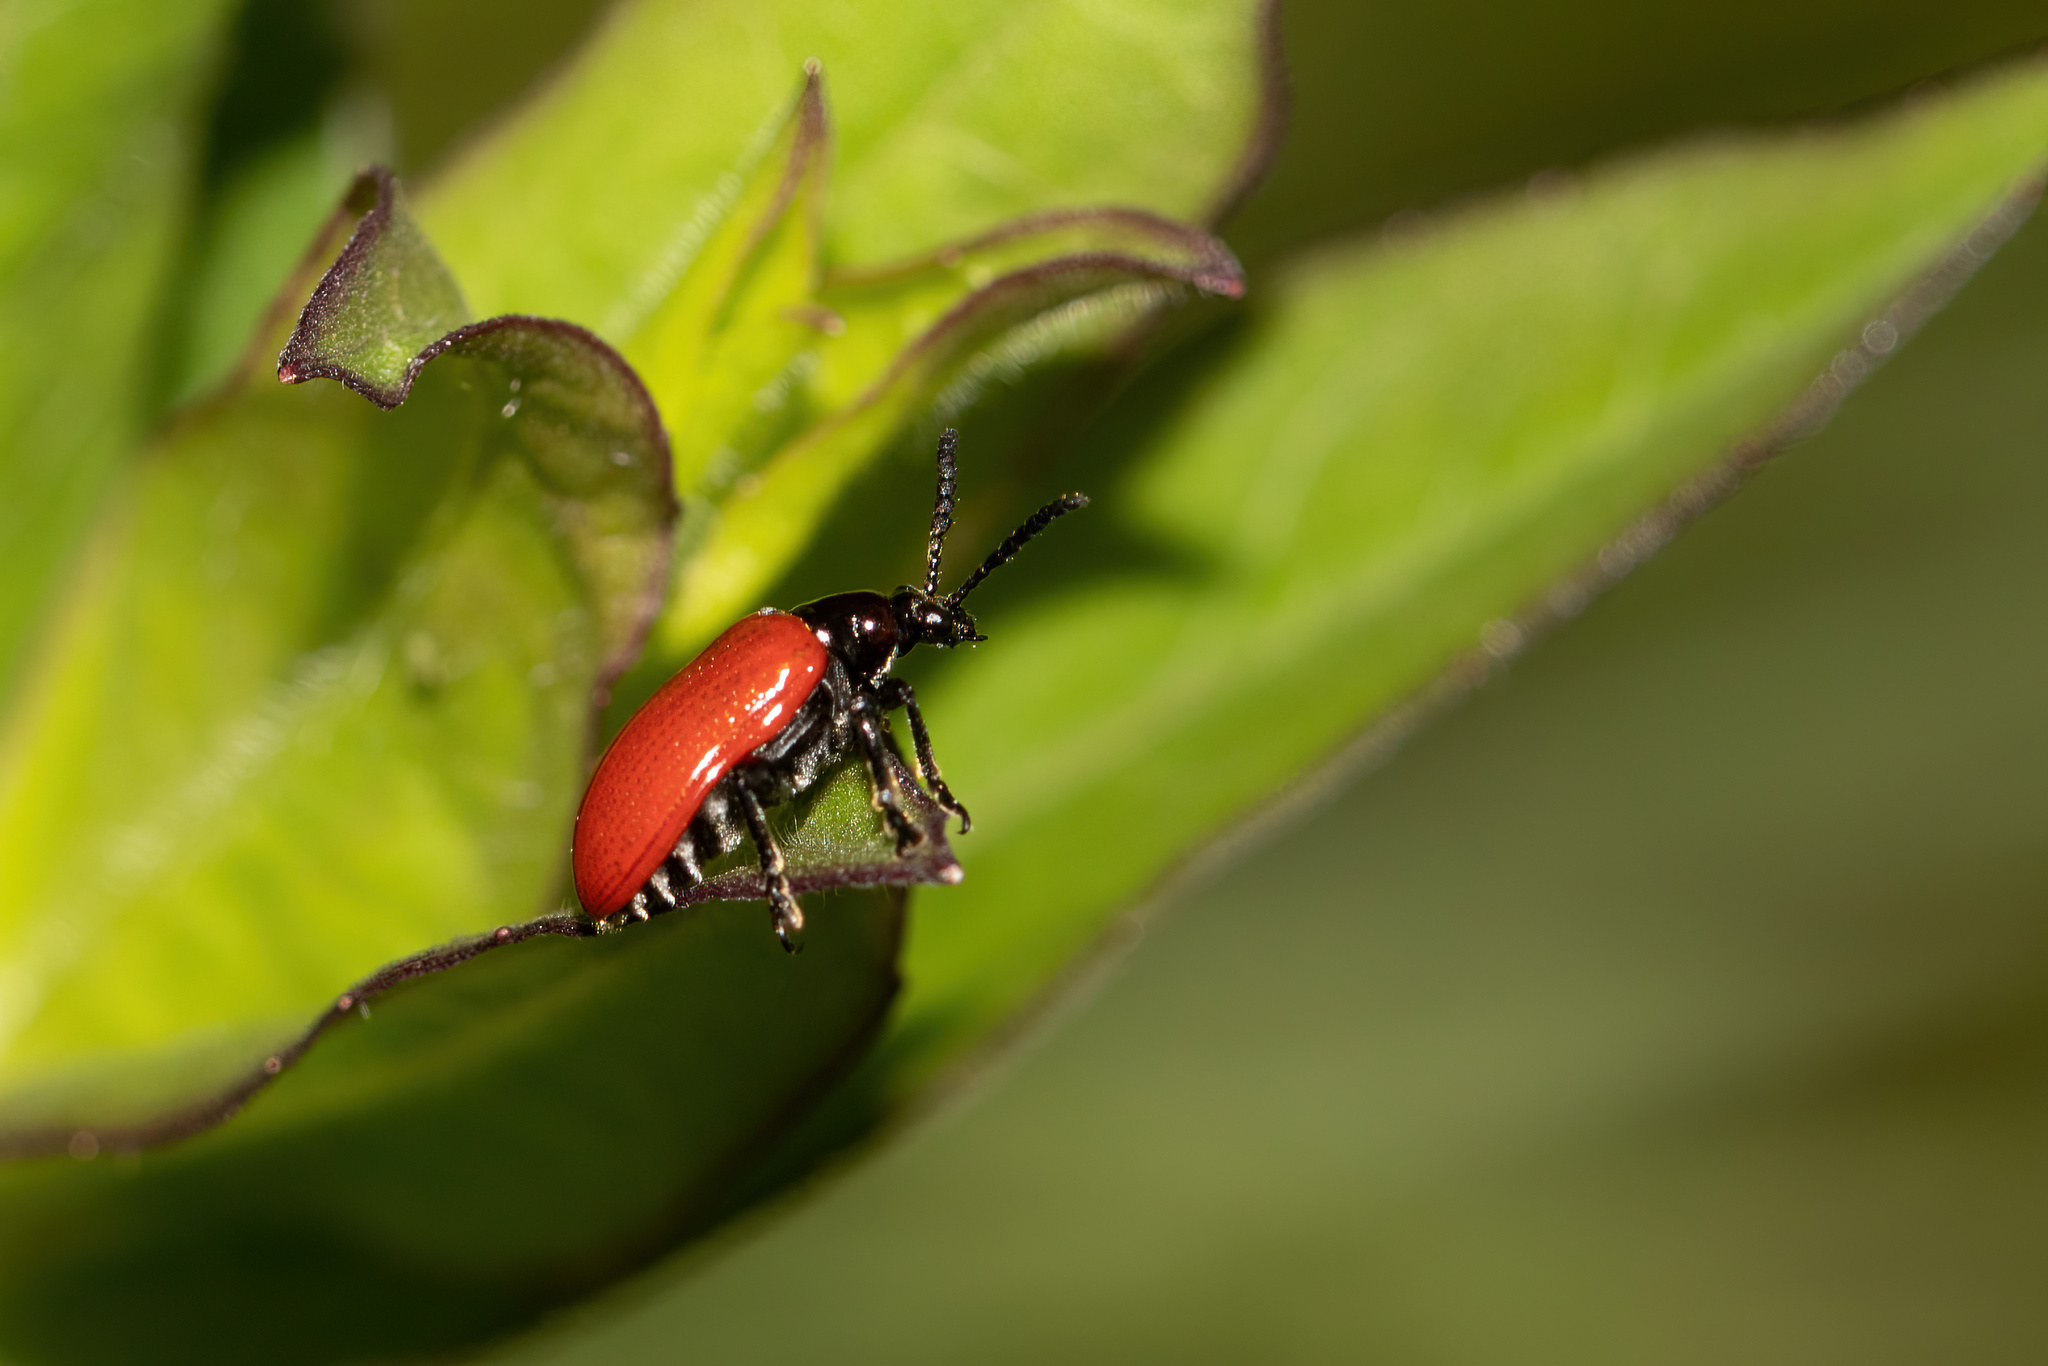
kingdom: Animalia
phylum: Arthropoda
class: Insecta
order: Coleoptera
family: Chrysomelidae
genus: Lilioceris
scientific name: Lilioceris cheni
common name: Leaf beetle
